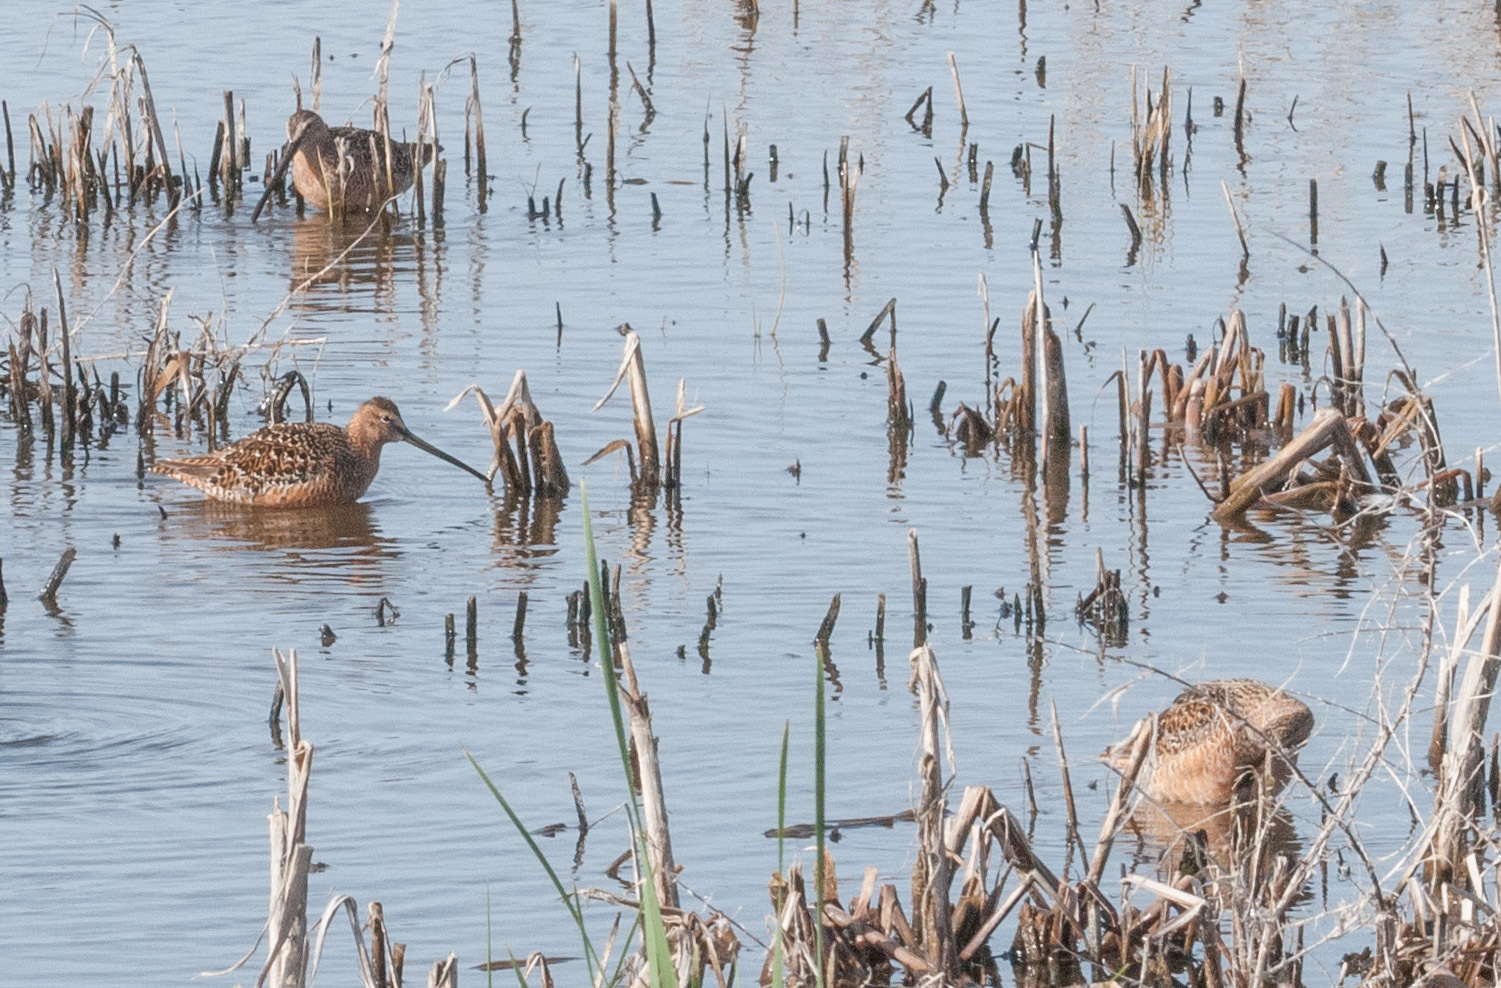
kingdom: Animalia
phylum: Chordata
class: Aves
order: Charadriiformes
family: Scolopacidae
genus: Limnodromus
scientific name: Limnodromus scolopaceus
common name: Long-billed dowitcher
